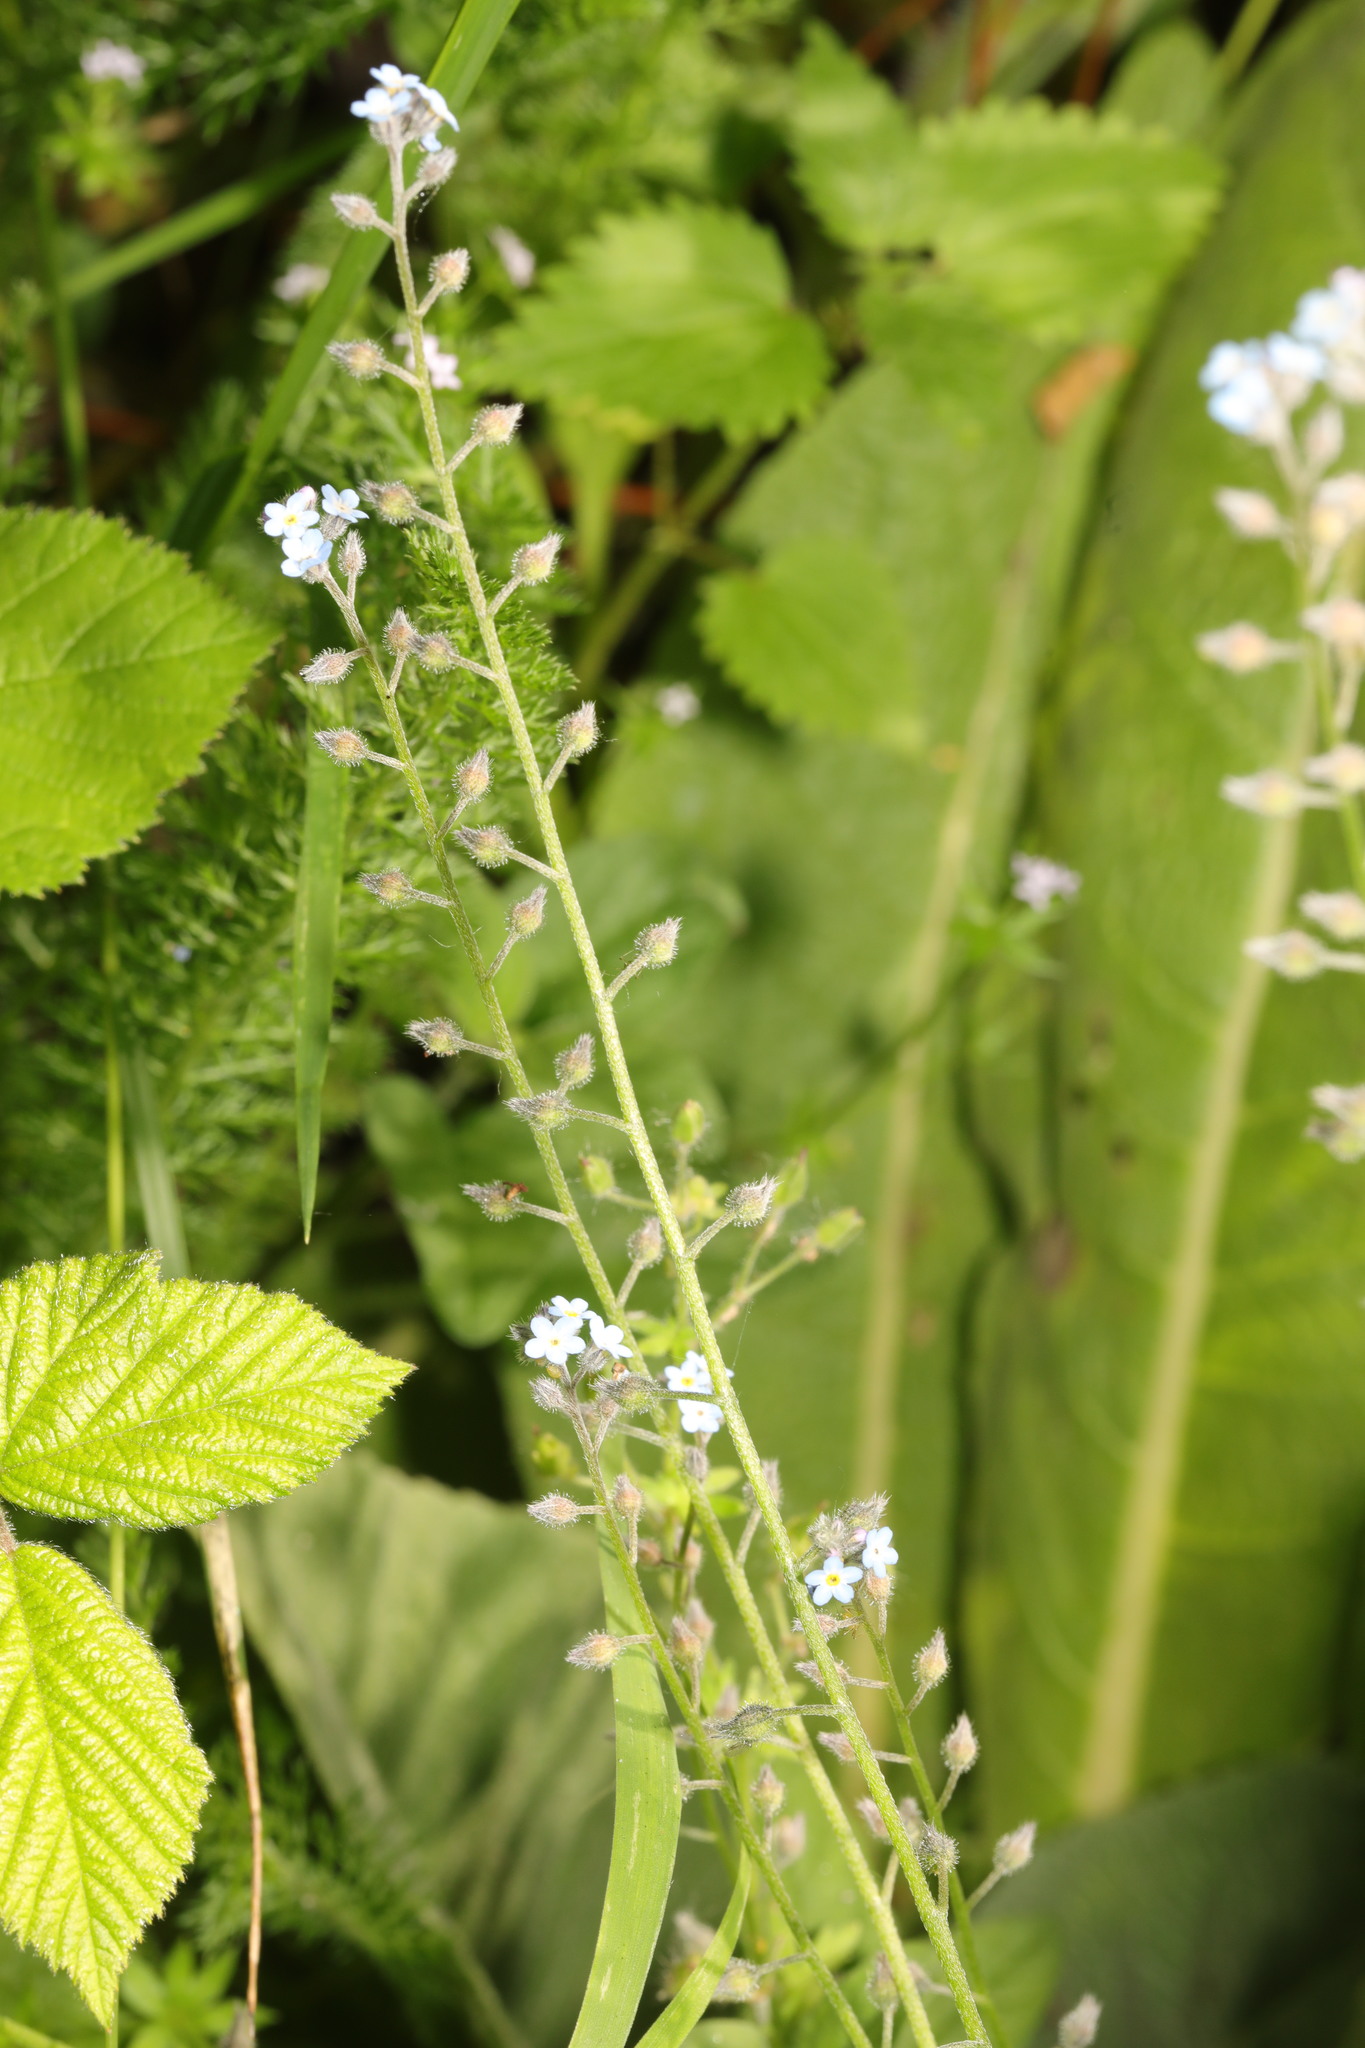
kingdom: Plantae
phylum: Tracheophyta
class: Magnoliopsida
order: Boraginales
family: Boraginaceae
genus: Myosotis
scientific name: Myosotis arvensis
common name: Field forget-me-not
